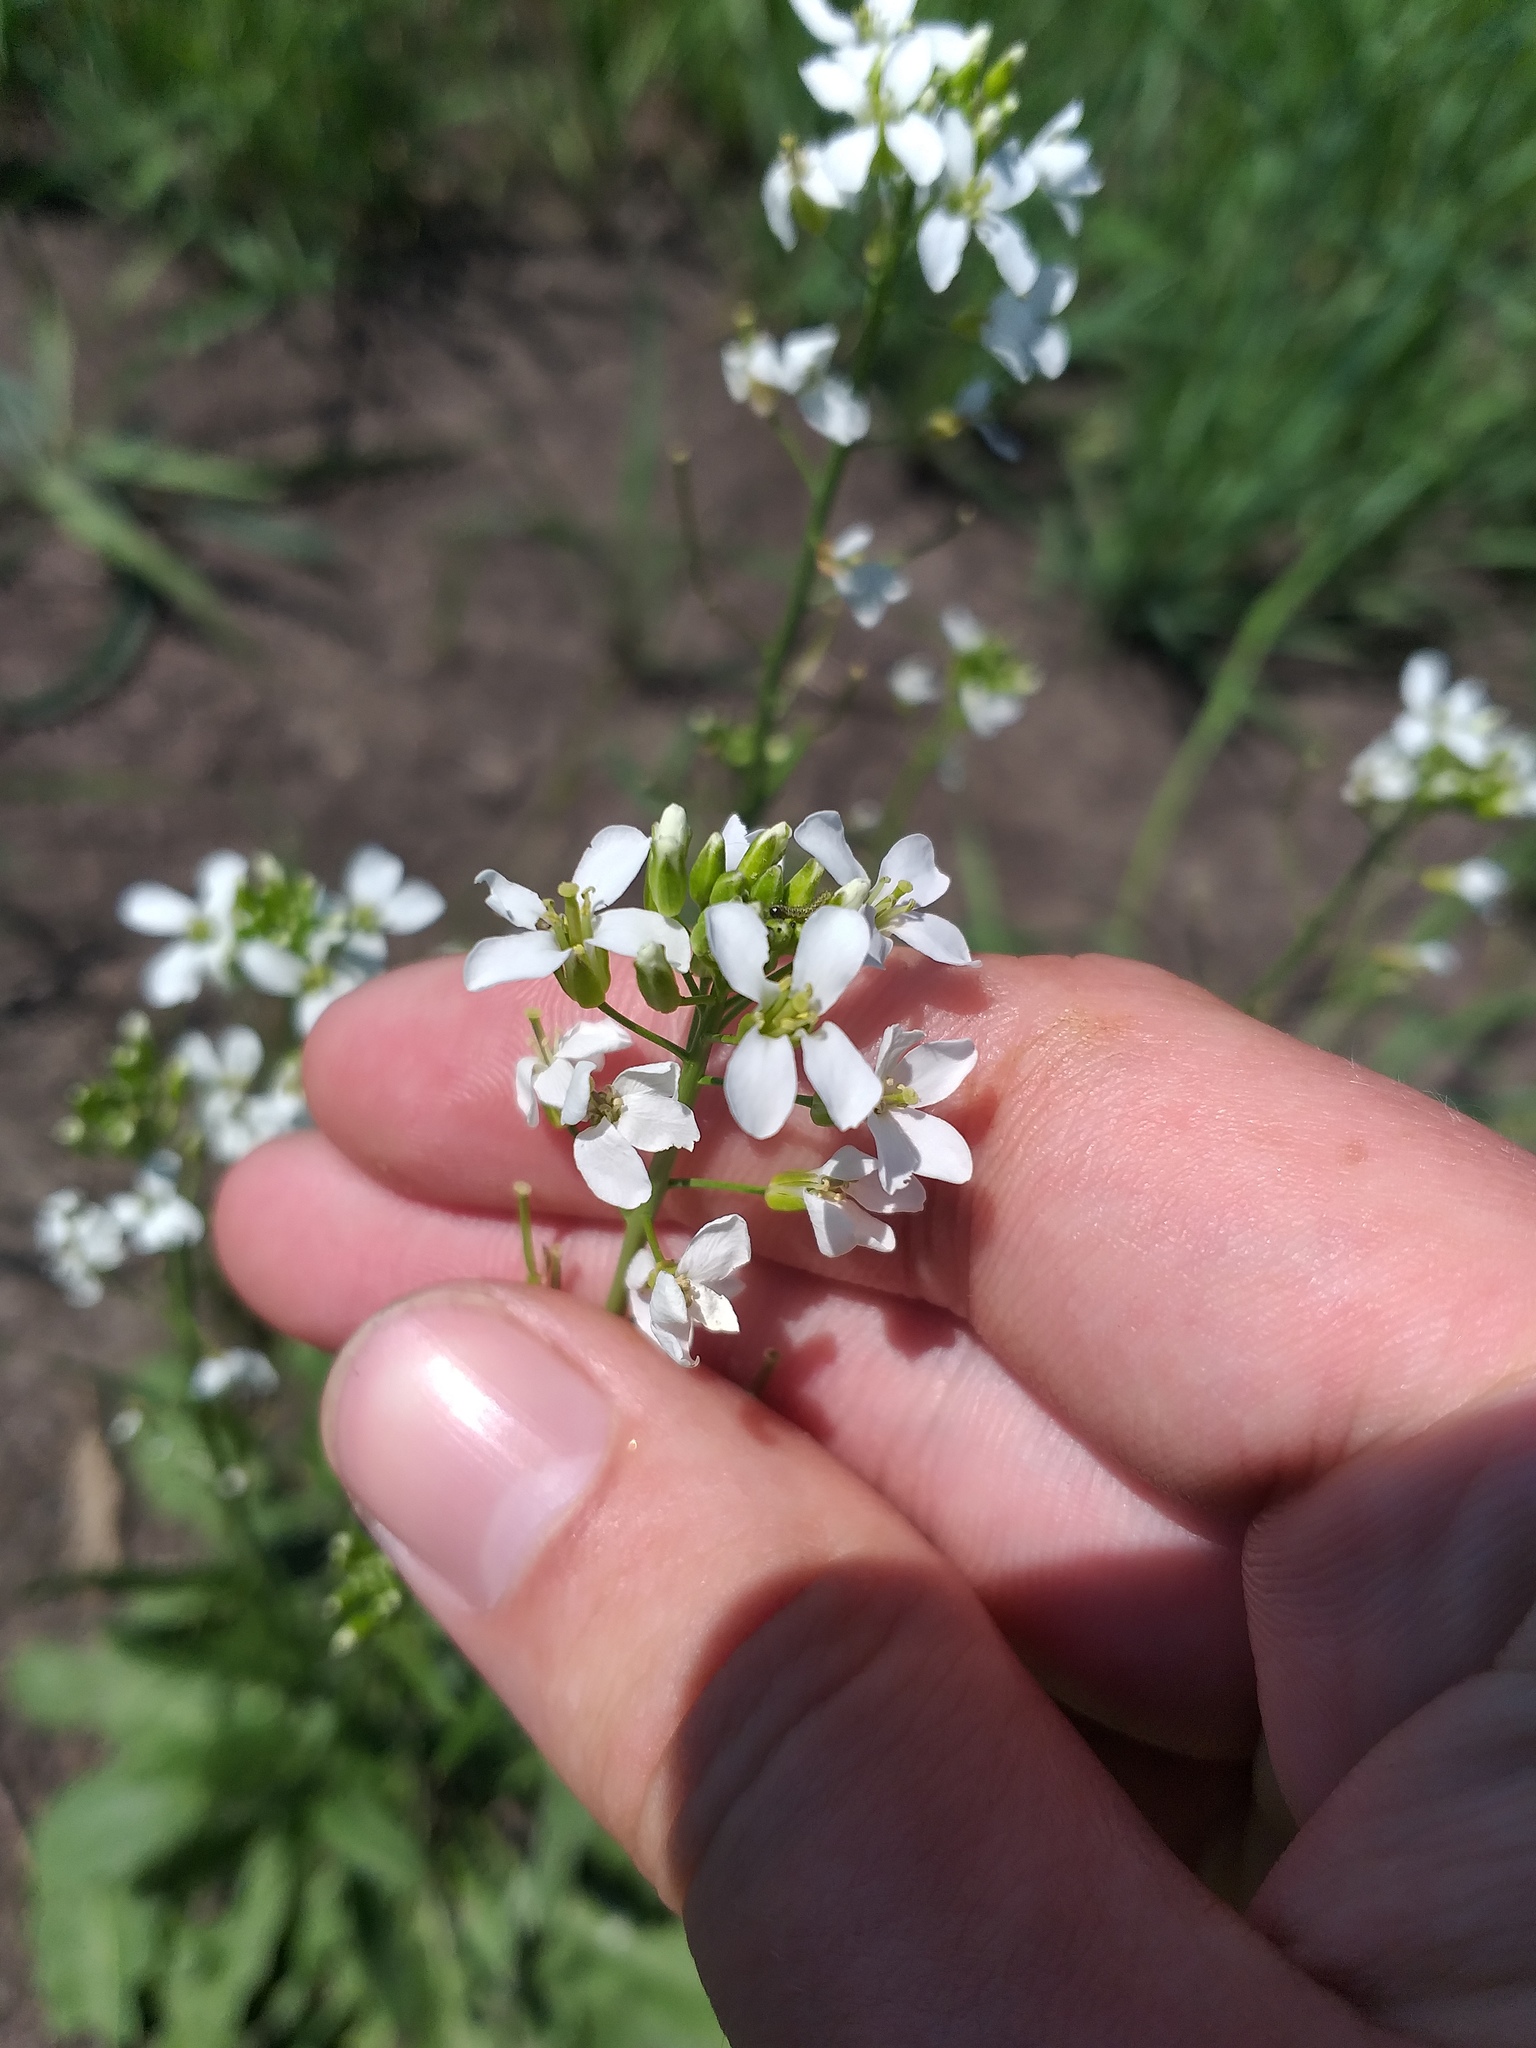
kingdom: Plantae
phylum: Tracheophyta
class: Magnoliopsida
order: Brassicales
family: Brassicaceae
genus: Pseudoarabidopsis
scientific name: Pseudoarabidopsis toxophylla
